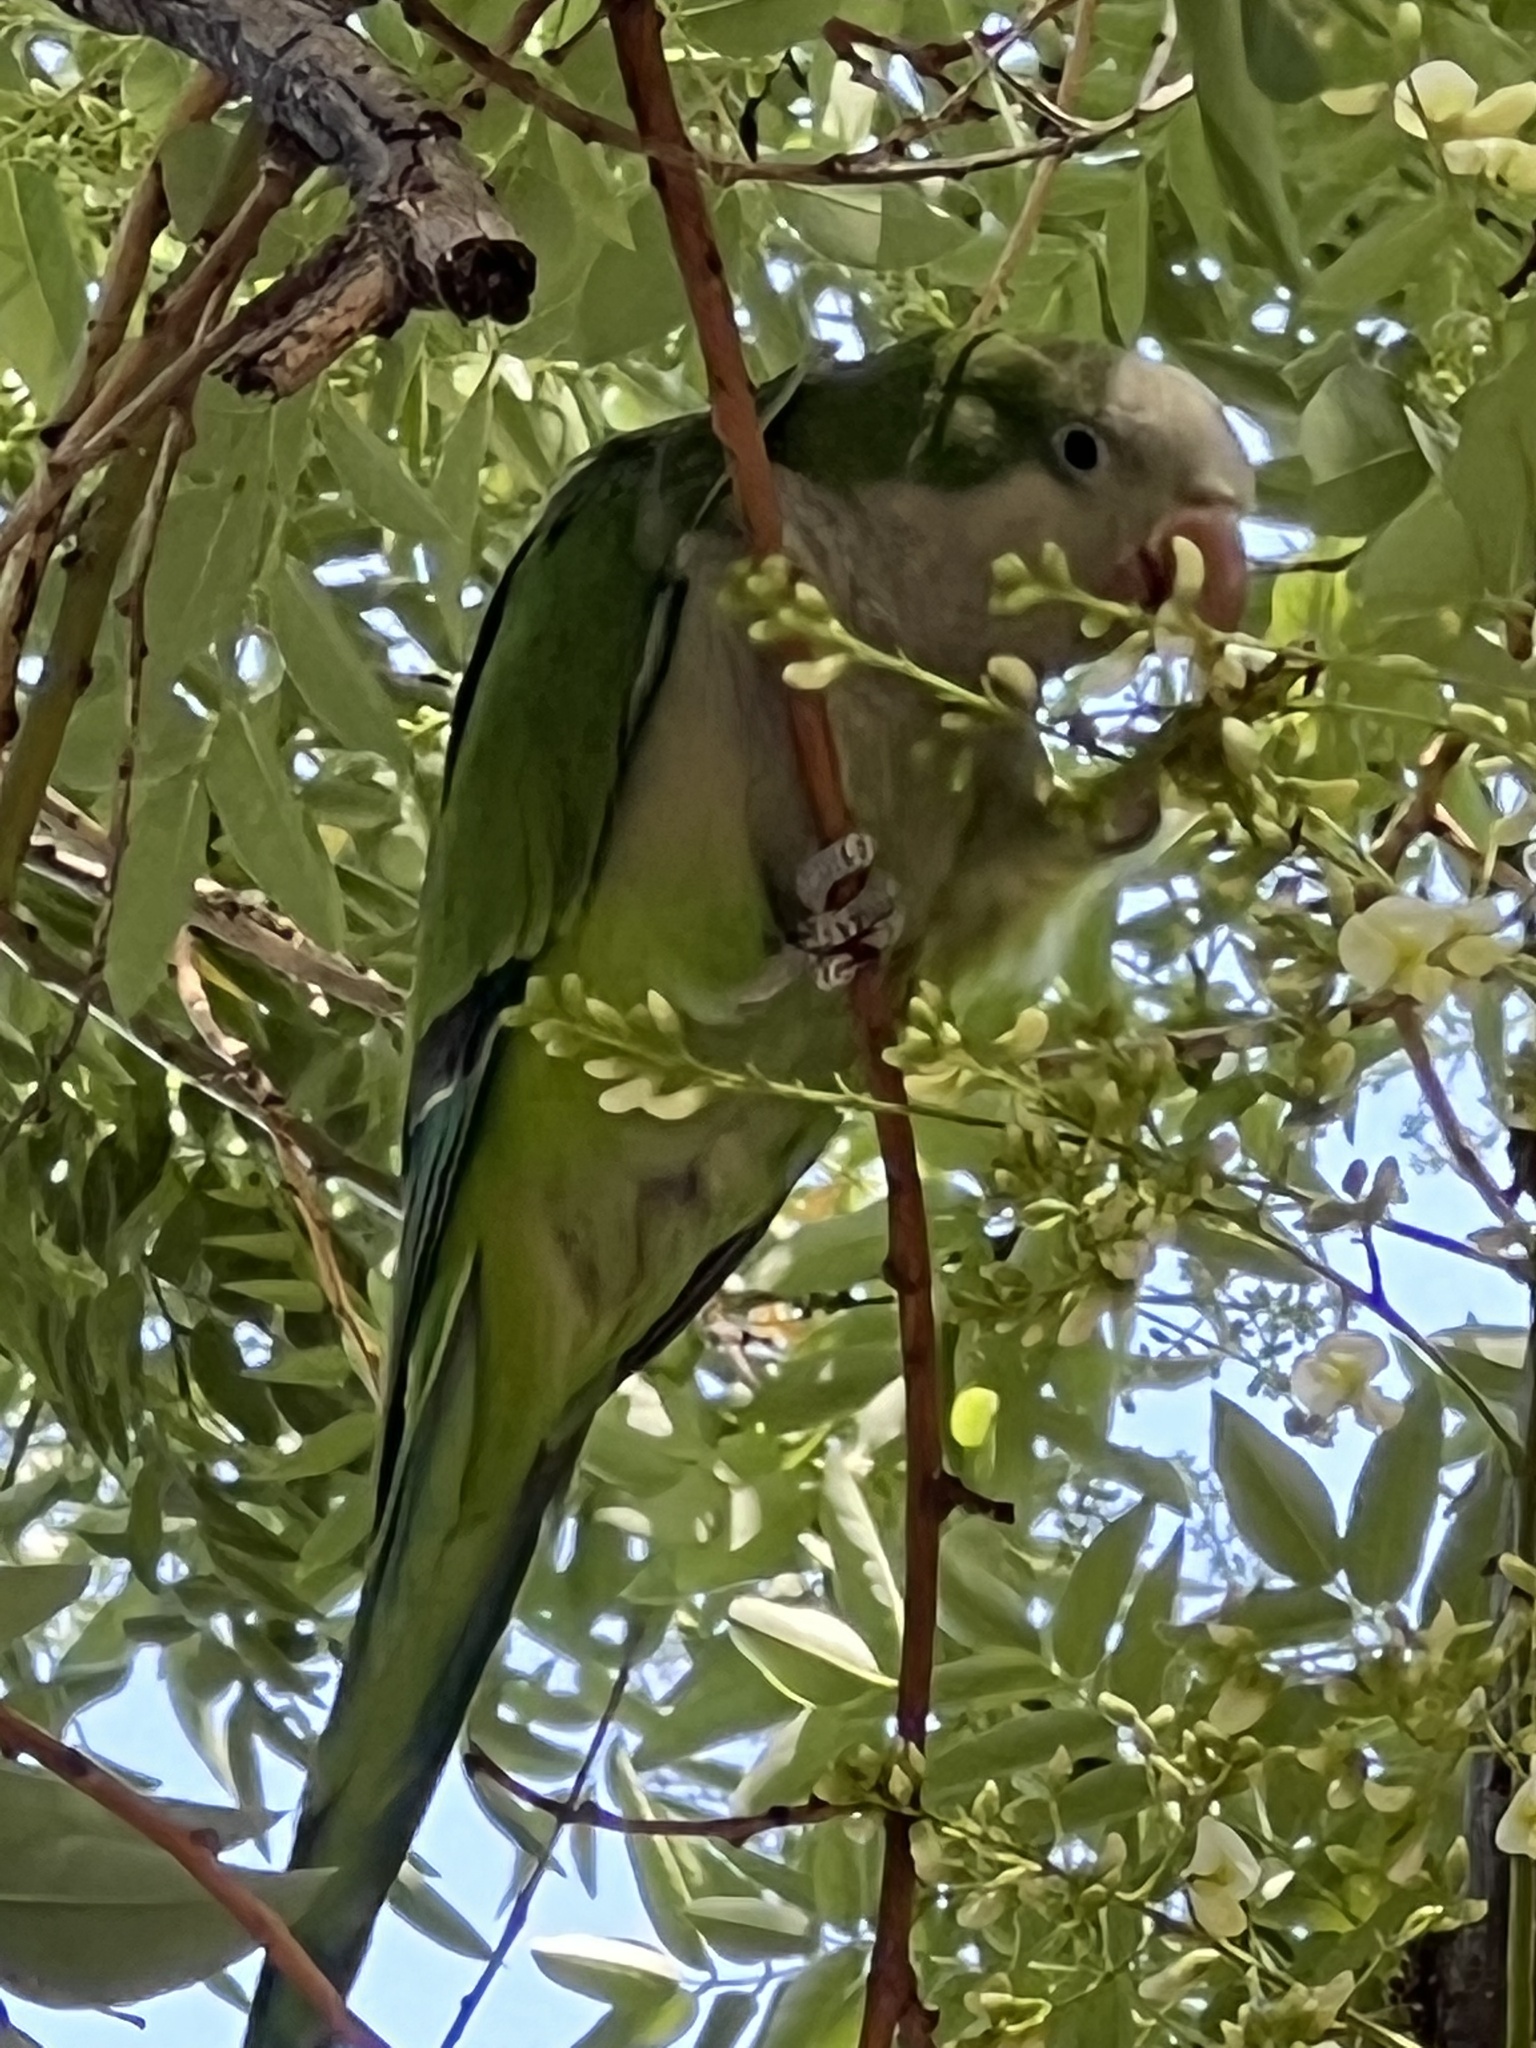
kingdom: Animalia
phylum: Chordata
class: Aves
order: Psittaciformes
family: Psittacidae
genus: Myiopsitta
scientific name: Myiopsitta monachus
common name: Monk parakeet
